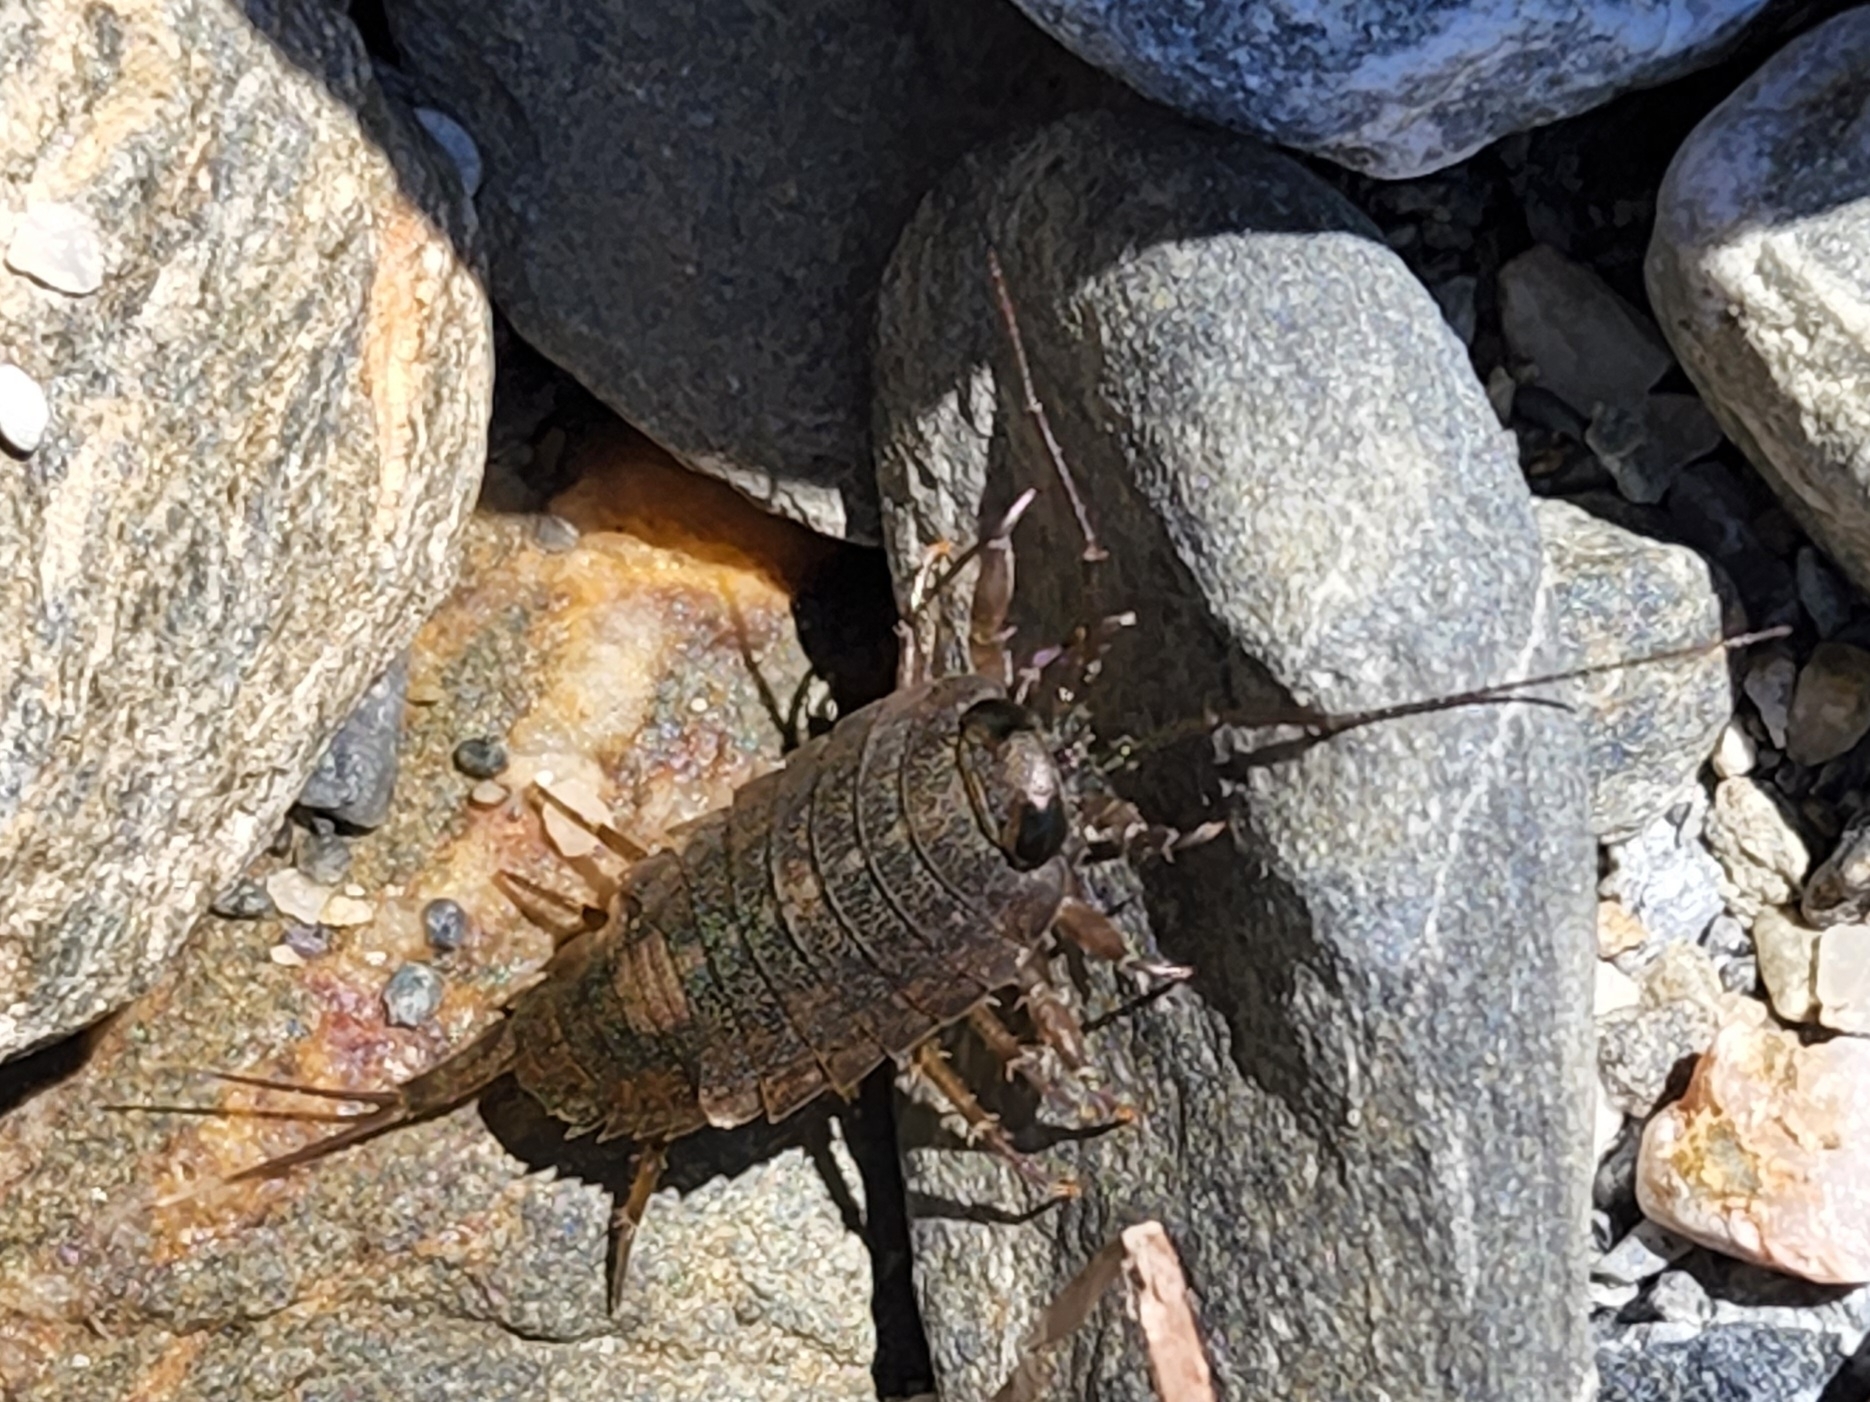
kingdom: Animalia
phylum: Arthropoda
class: Malacostraca
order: Isopoda
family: Ligiidae
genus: Ligia
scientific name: Ligia occidentalis
